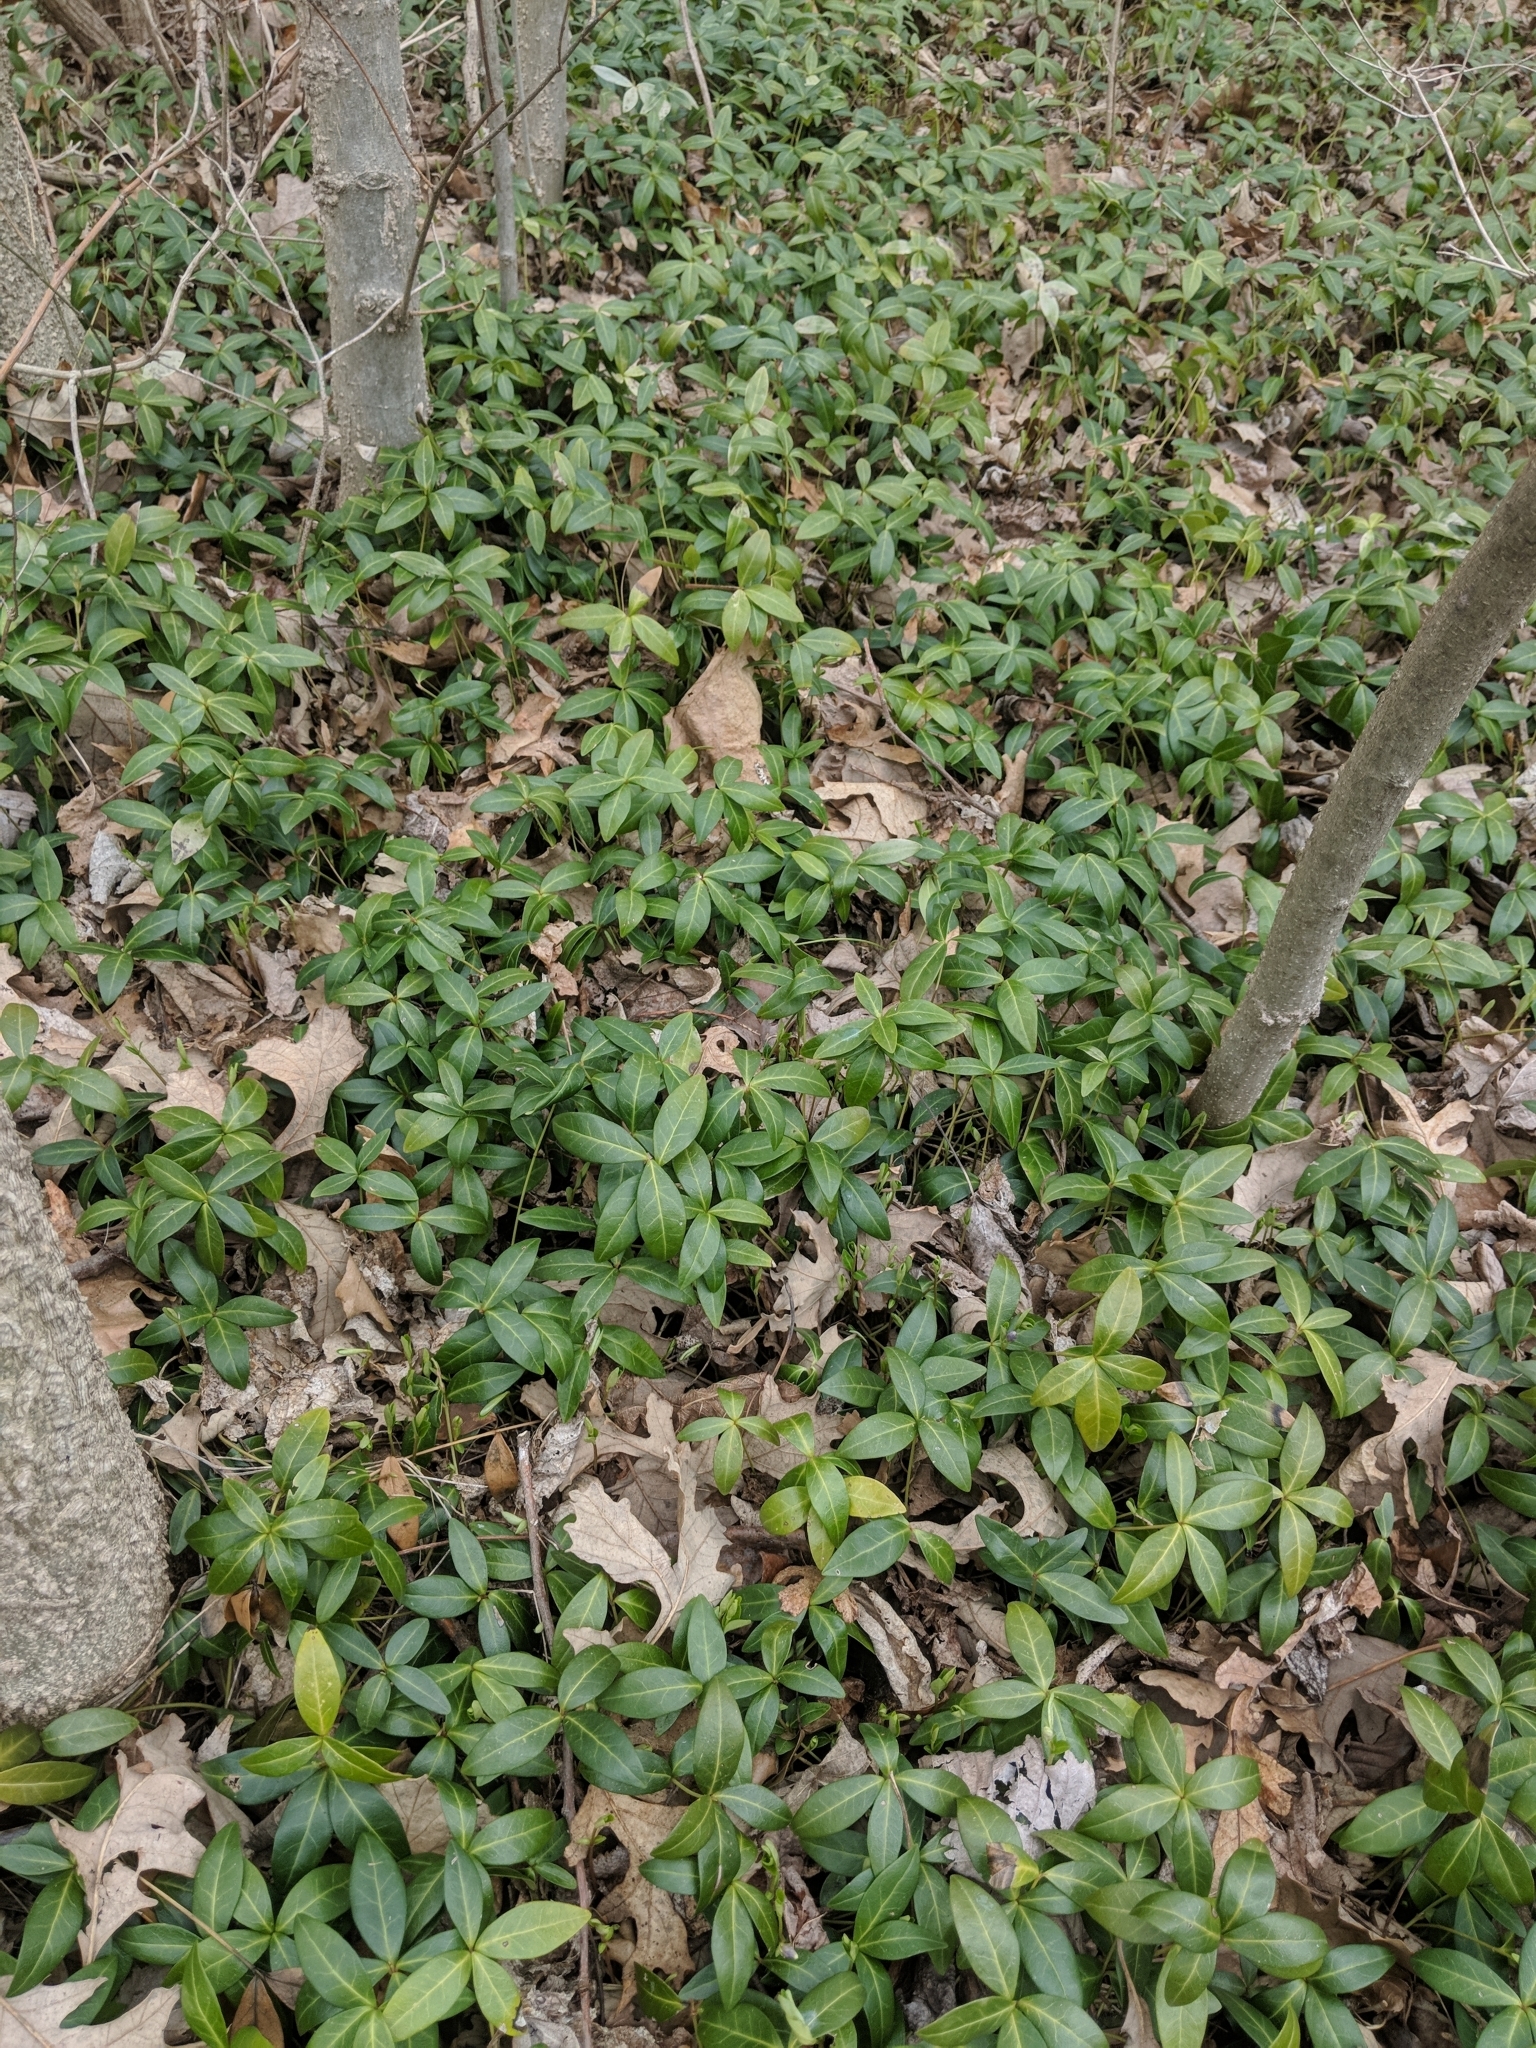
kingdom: Plantae
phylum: Tracheophyta
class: Magnoliopsida
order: Gentianales
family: Apocynaceae
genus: Vinca
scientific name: Vinca minor
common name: Lesser periwinkle
